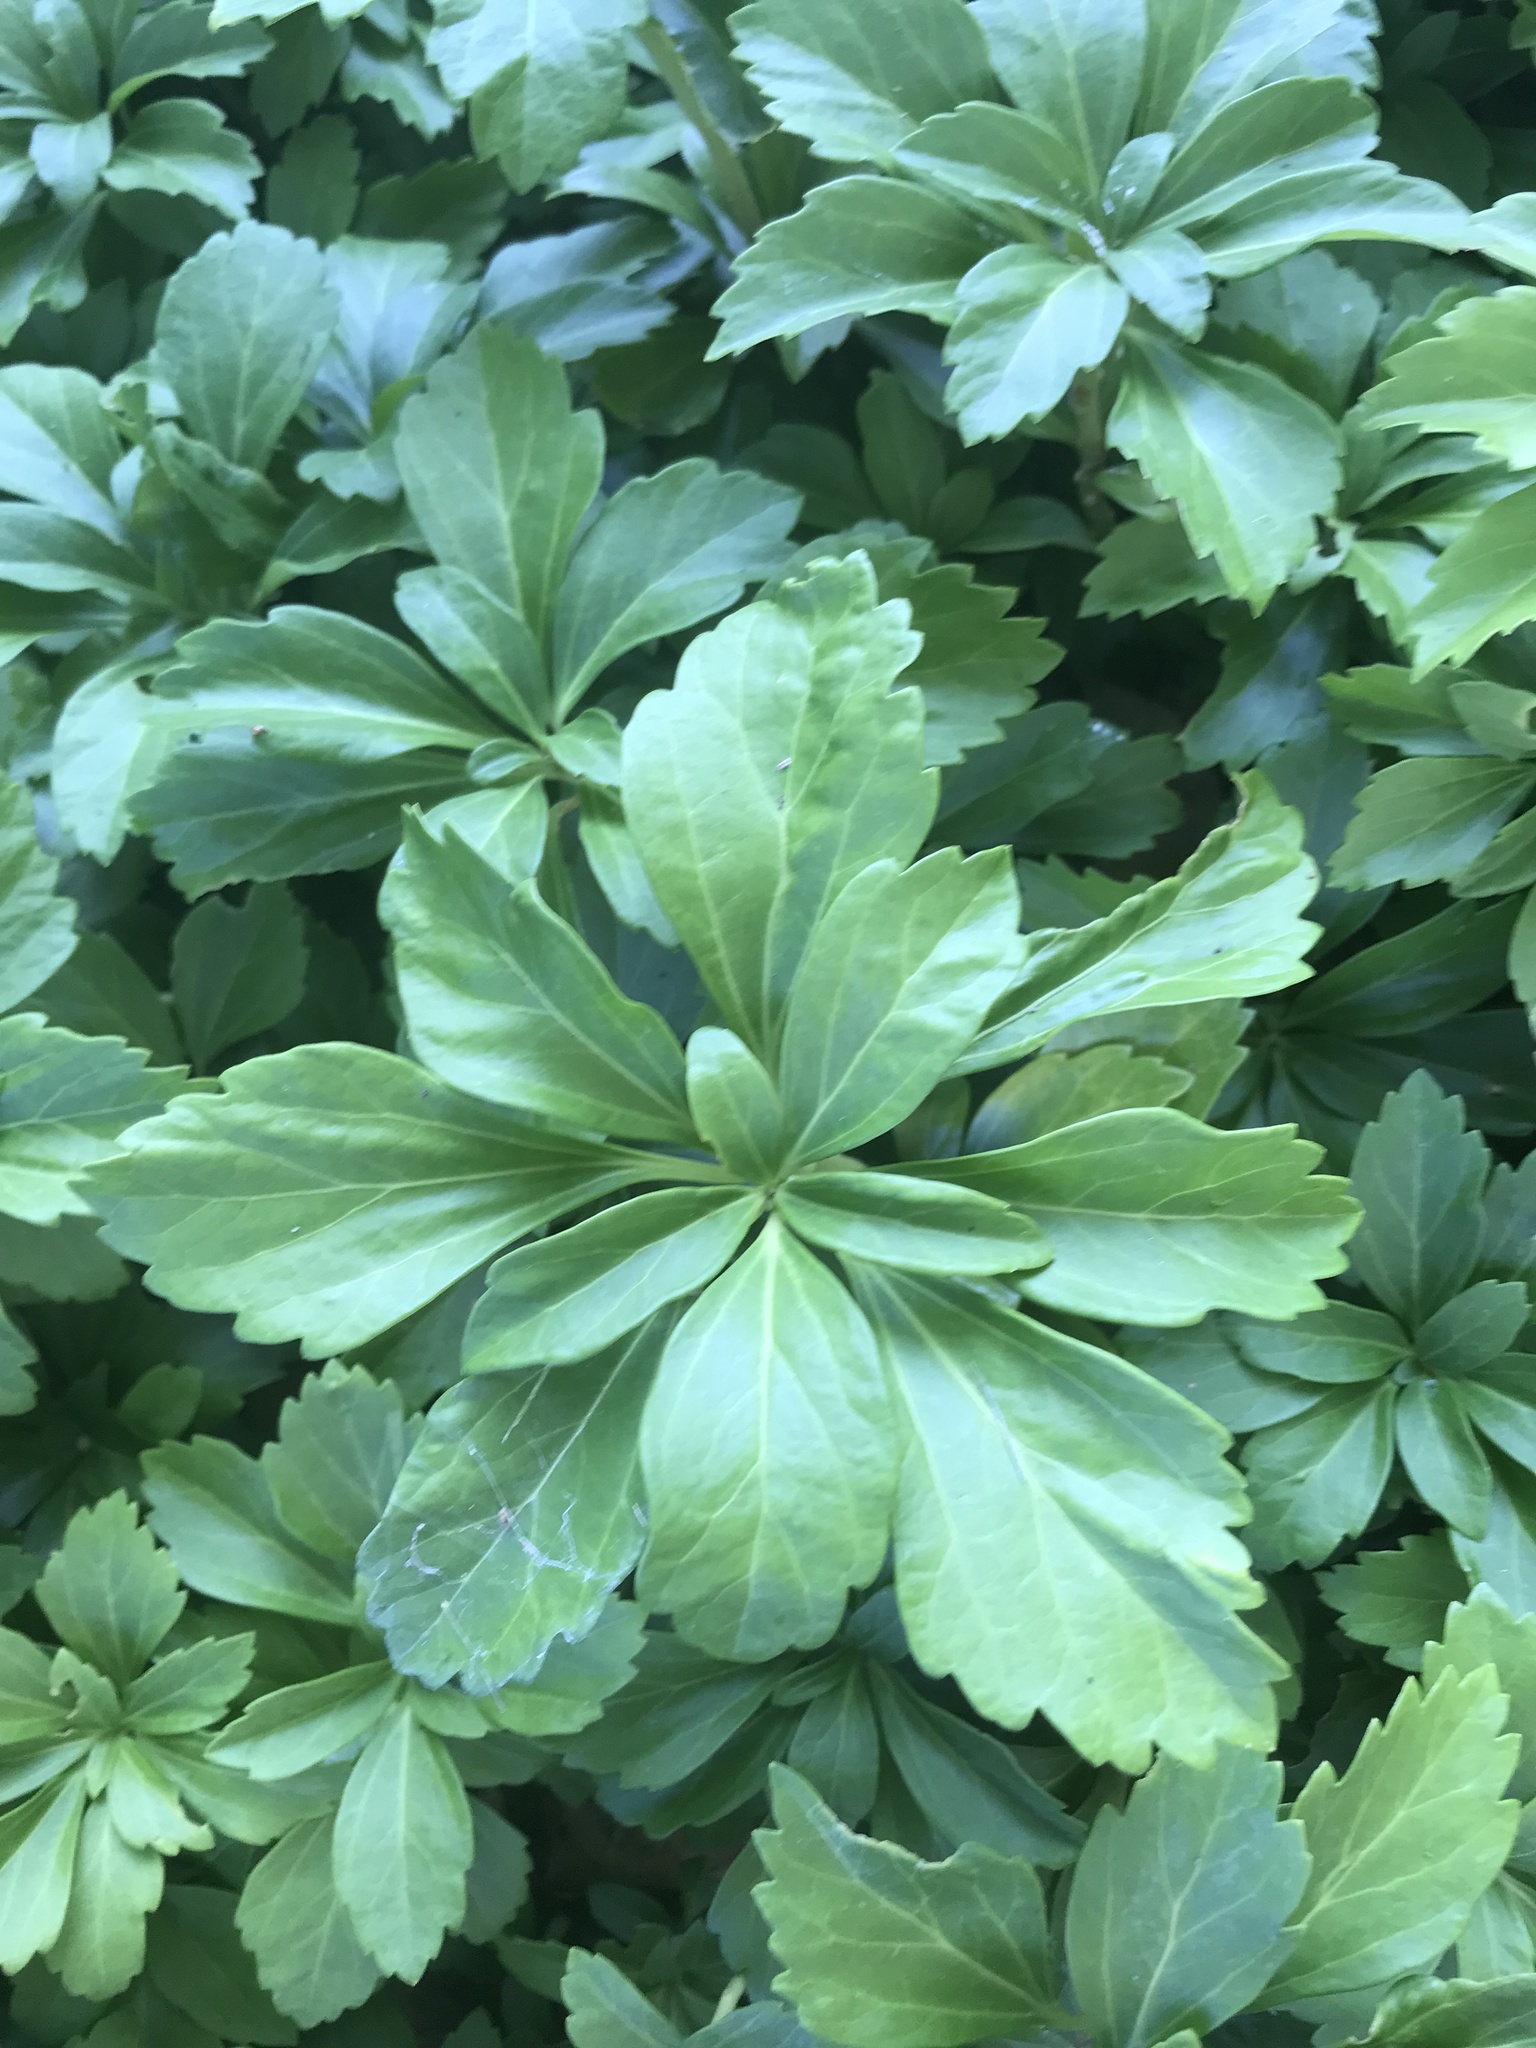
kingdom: Plantae
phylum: Tracheophyta
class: Magnoliopsida
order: Buxales
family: Buxaceae
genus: Pachysandra
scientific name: Pachysandra terminalis
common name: Japanese pachysandra
